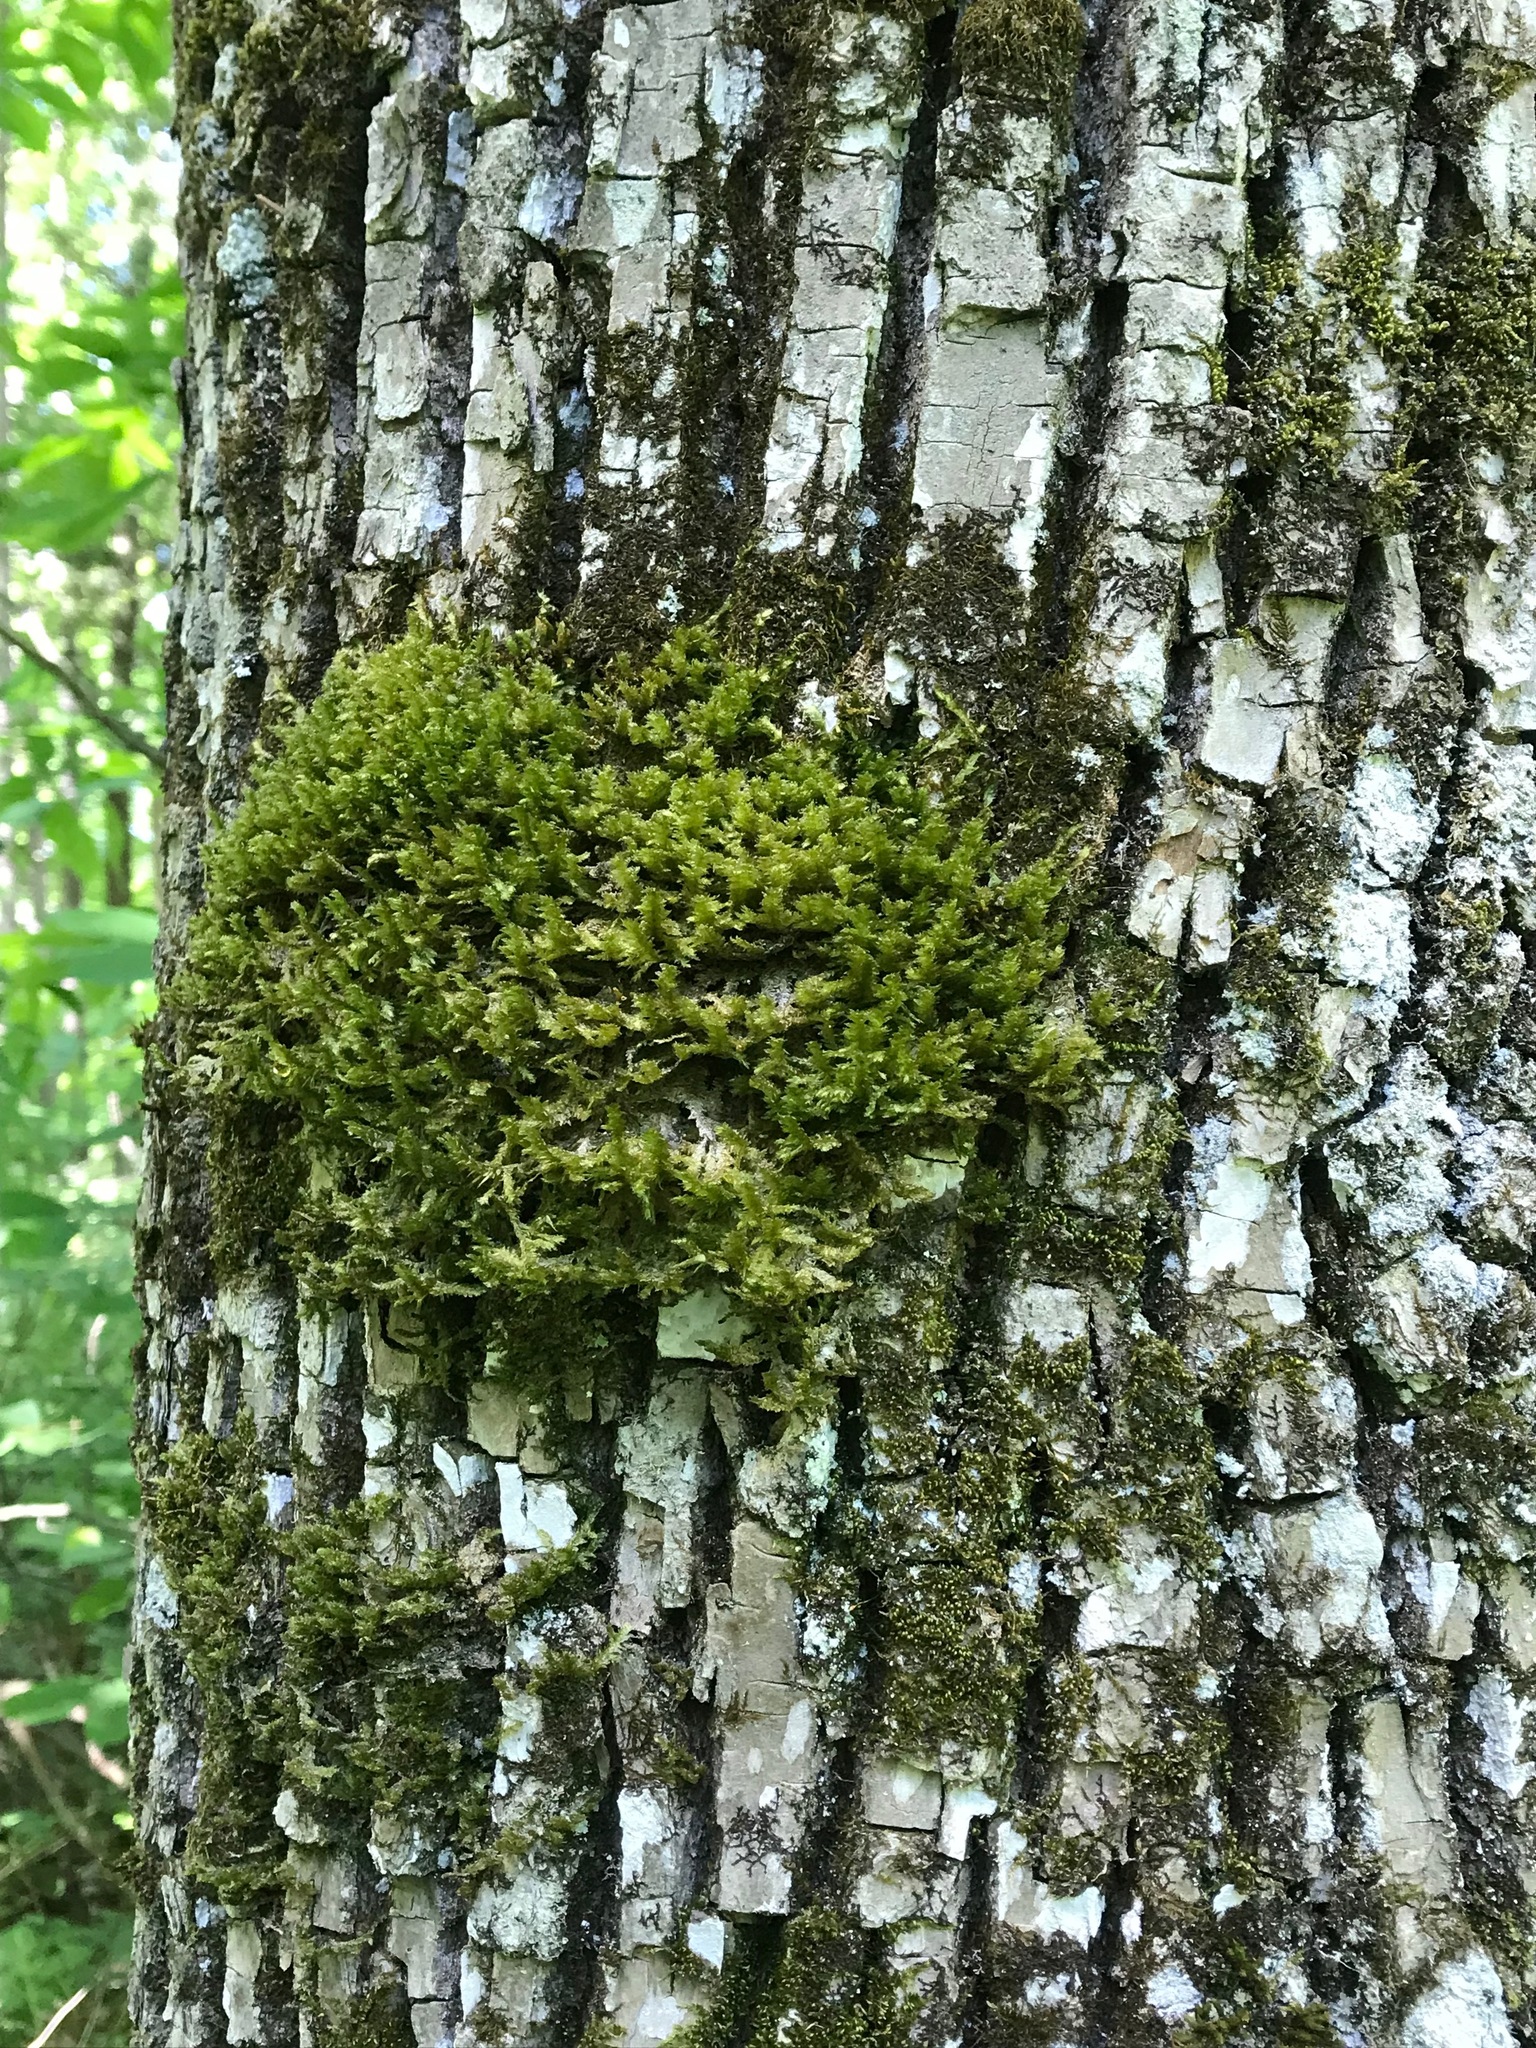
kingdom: Plantae
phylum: Bryophyta
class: Bryopsida
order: Hypnales
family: Neckeraceae
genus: Neckera
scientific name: Neckera pennata
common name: Feathery neckera
